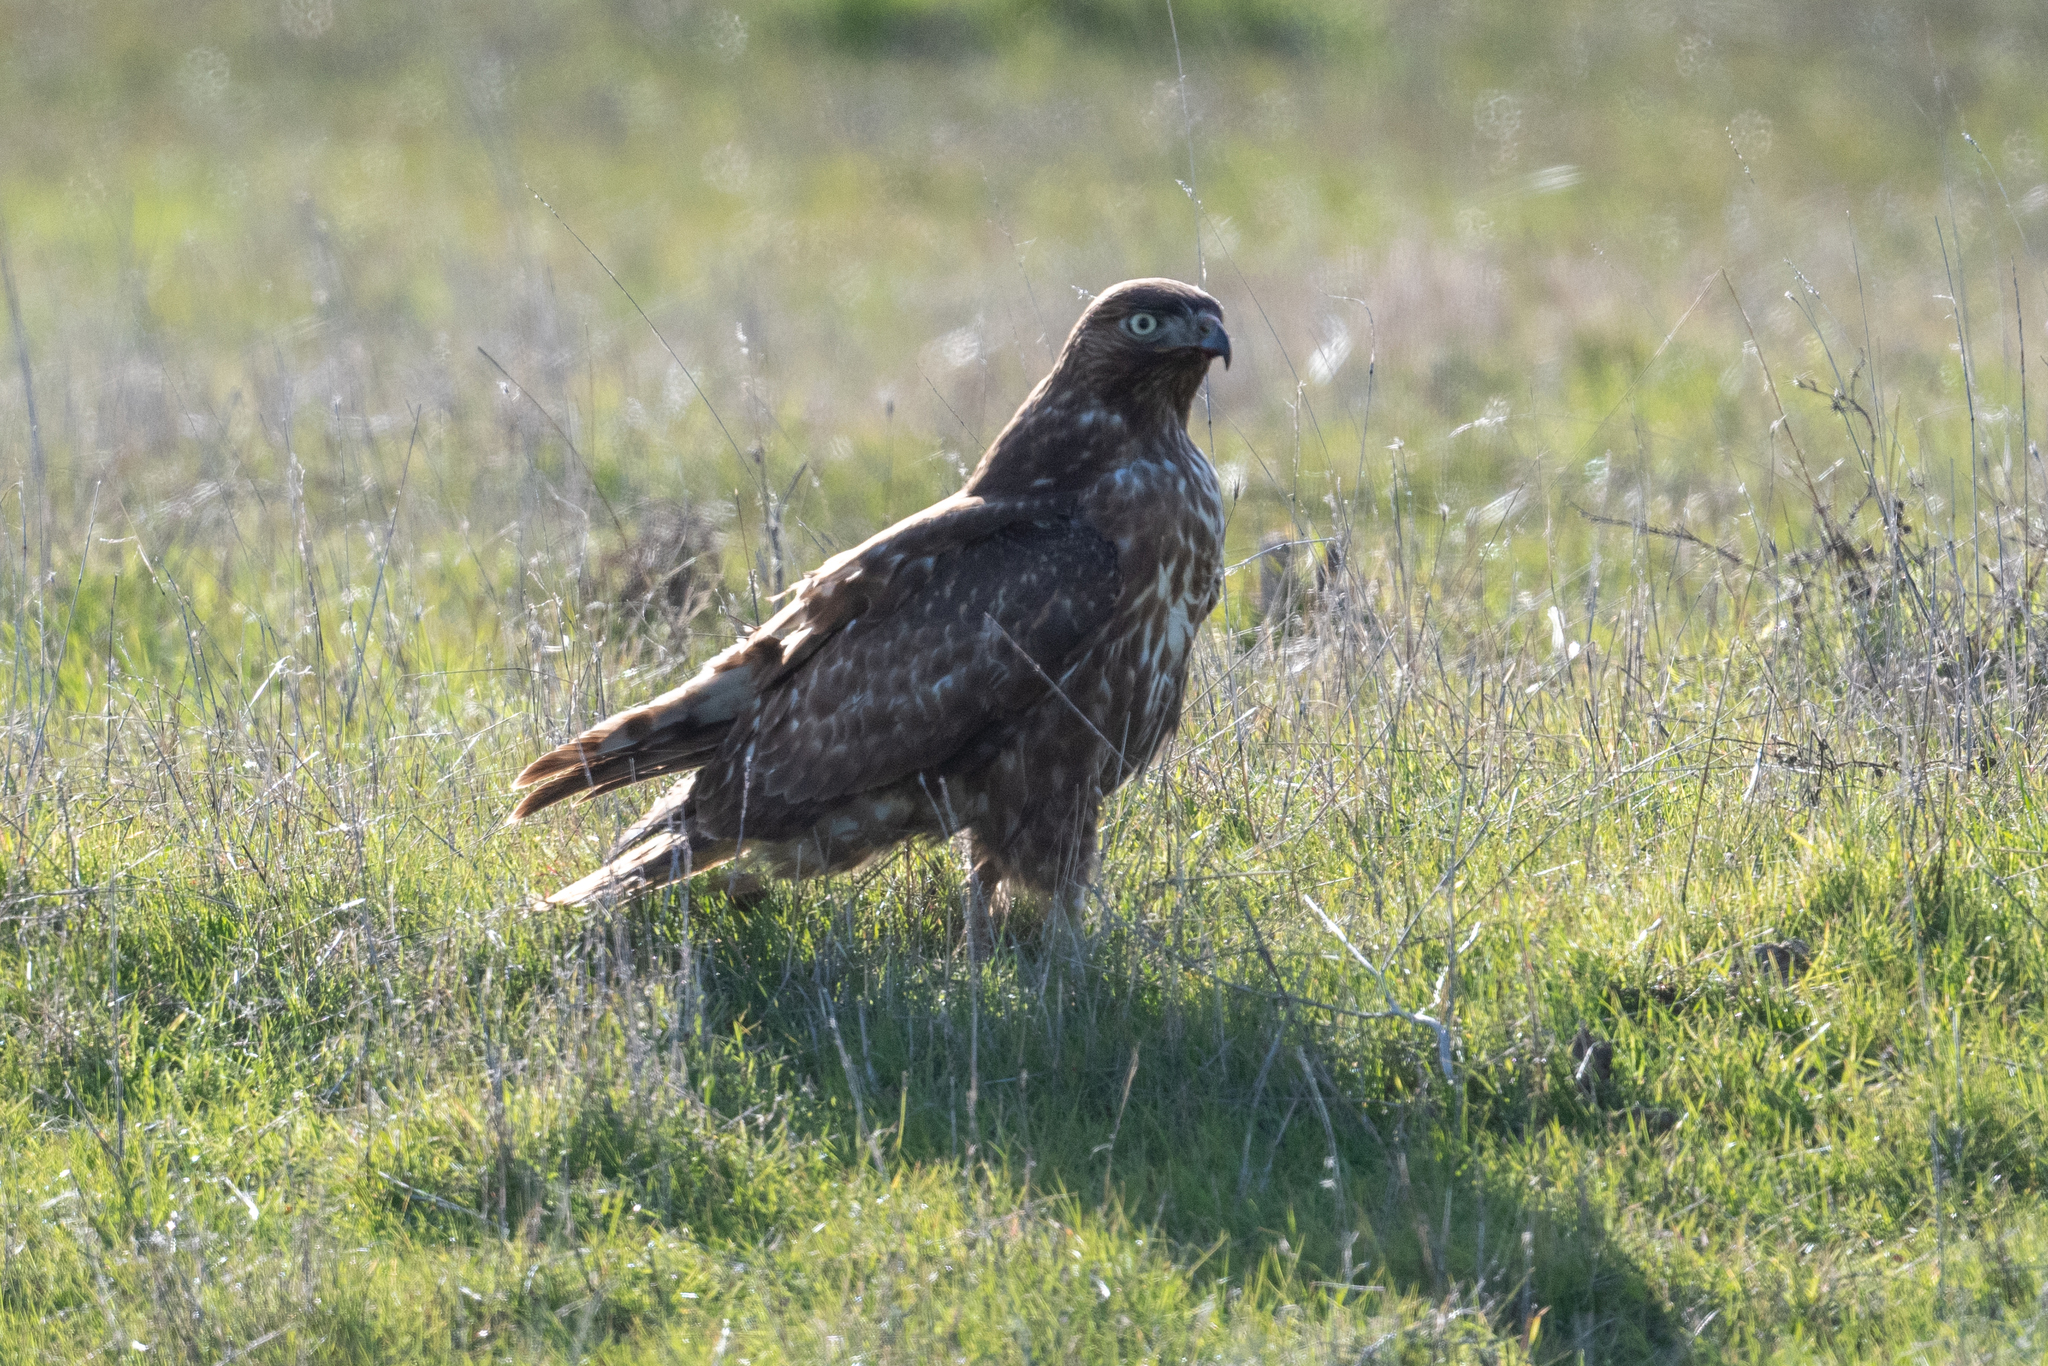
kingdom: Animalia
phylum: Chordata
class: Aves
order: Accipitriformes
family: Accipitridae
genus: Buteo
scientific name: Buteo jamaicensis
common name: Red-tailed hawk
